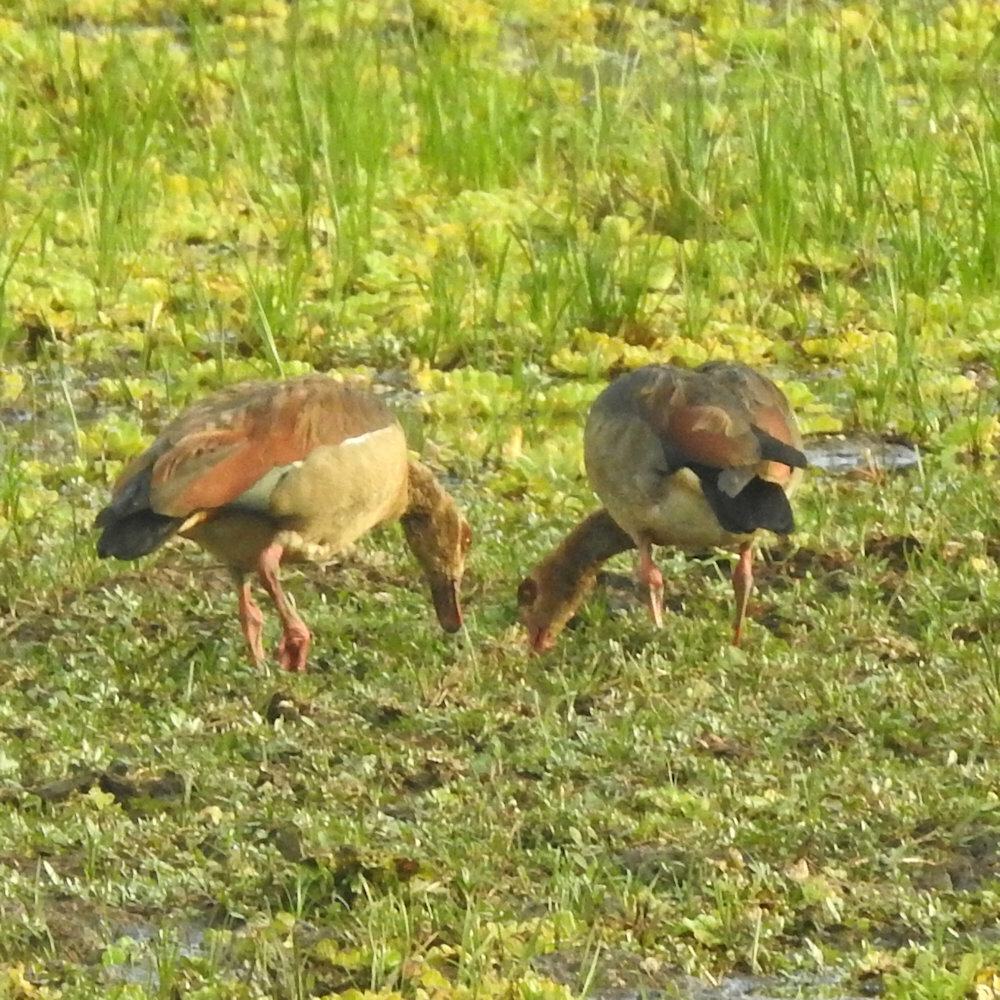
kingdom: Animalia
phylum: Chordata
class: Aves
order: Anseriformes
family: Anatidae
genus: Alopochen
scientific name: Alopochen aegyptiaca
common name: Egyptian goose
